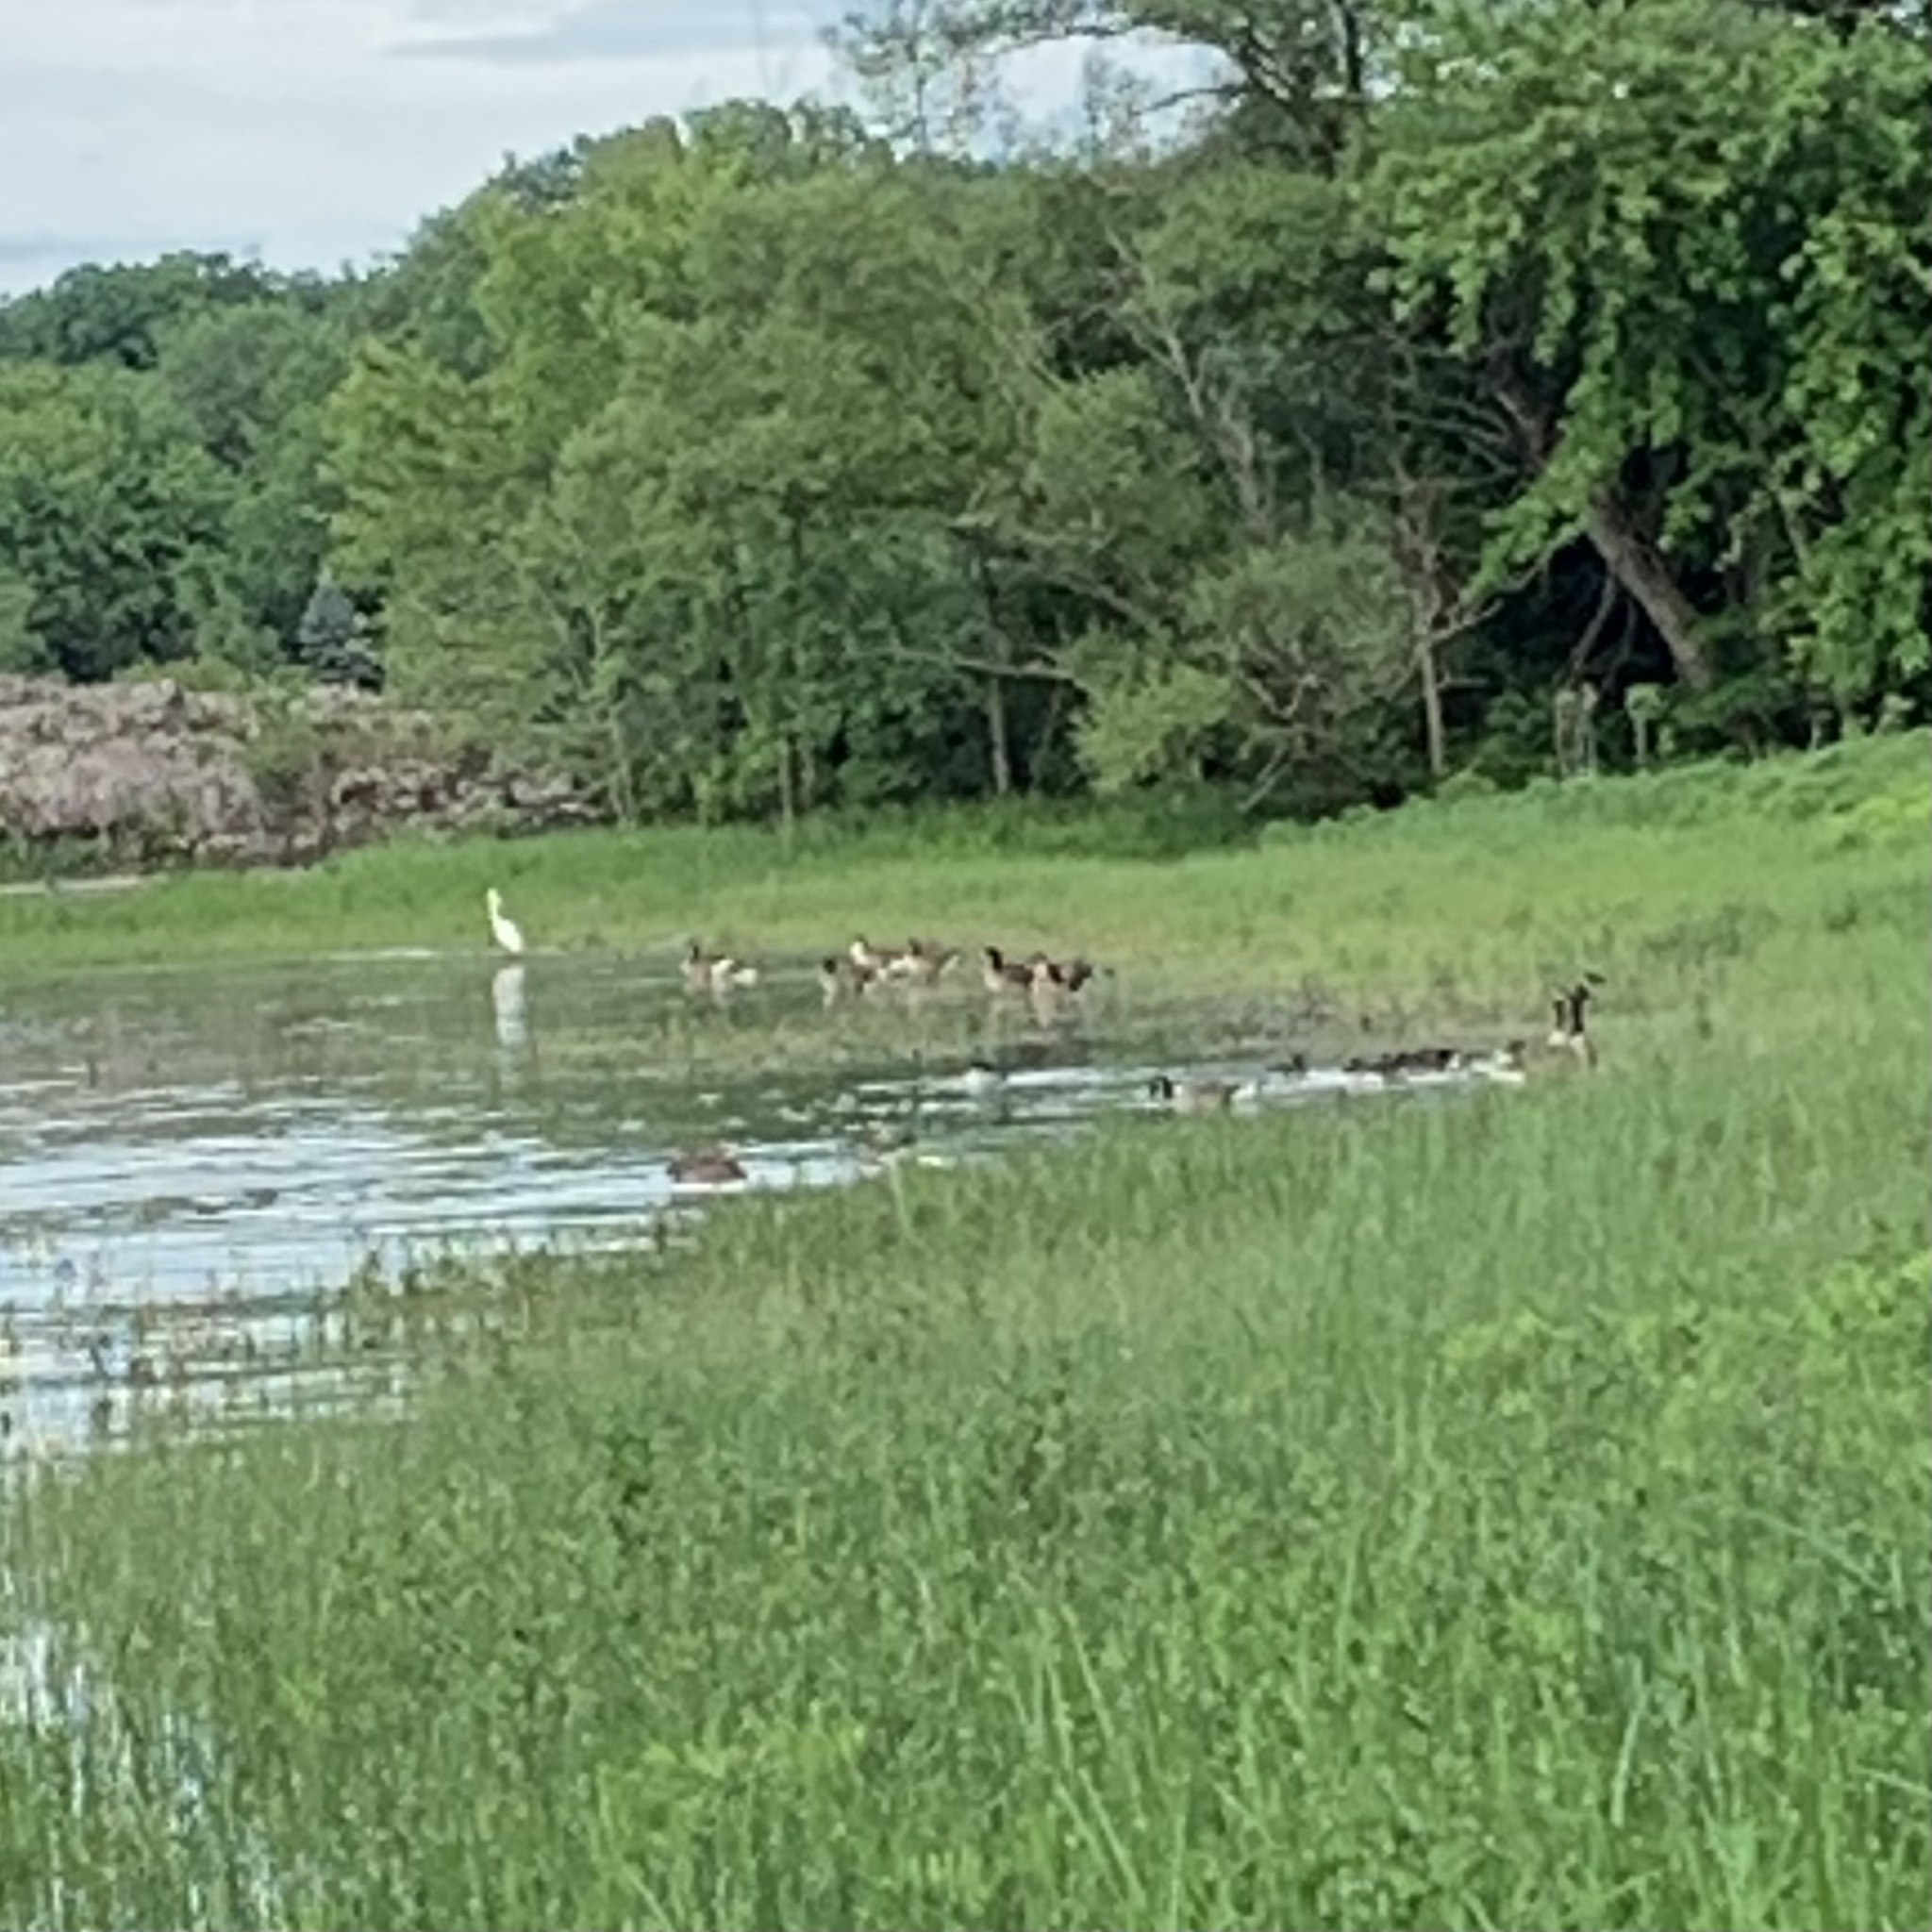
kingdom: Animalia
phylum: Chordata
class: Aves
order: Anseriformes
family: Anatidae
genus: Branta
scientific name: Branta canadensis
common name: Canada goose
